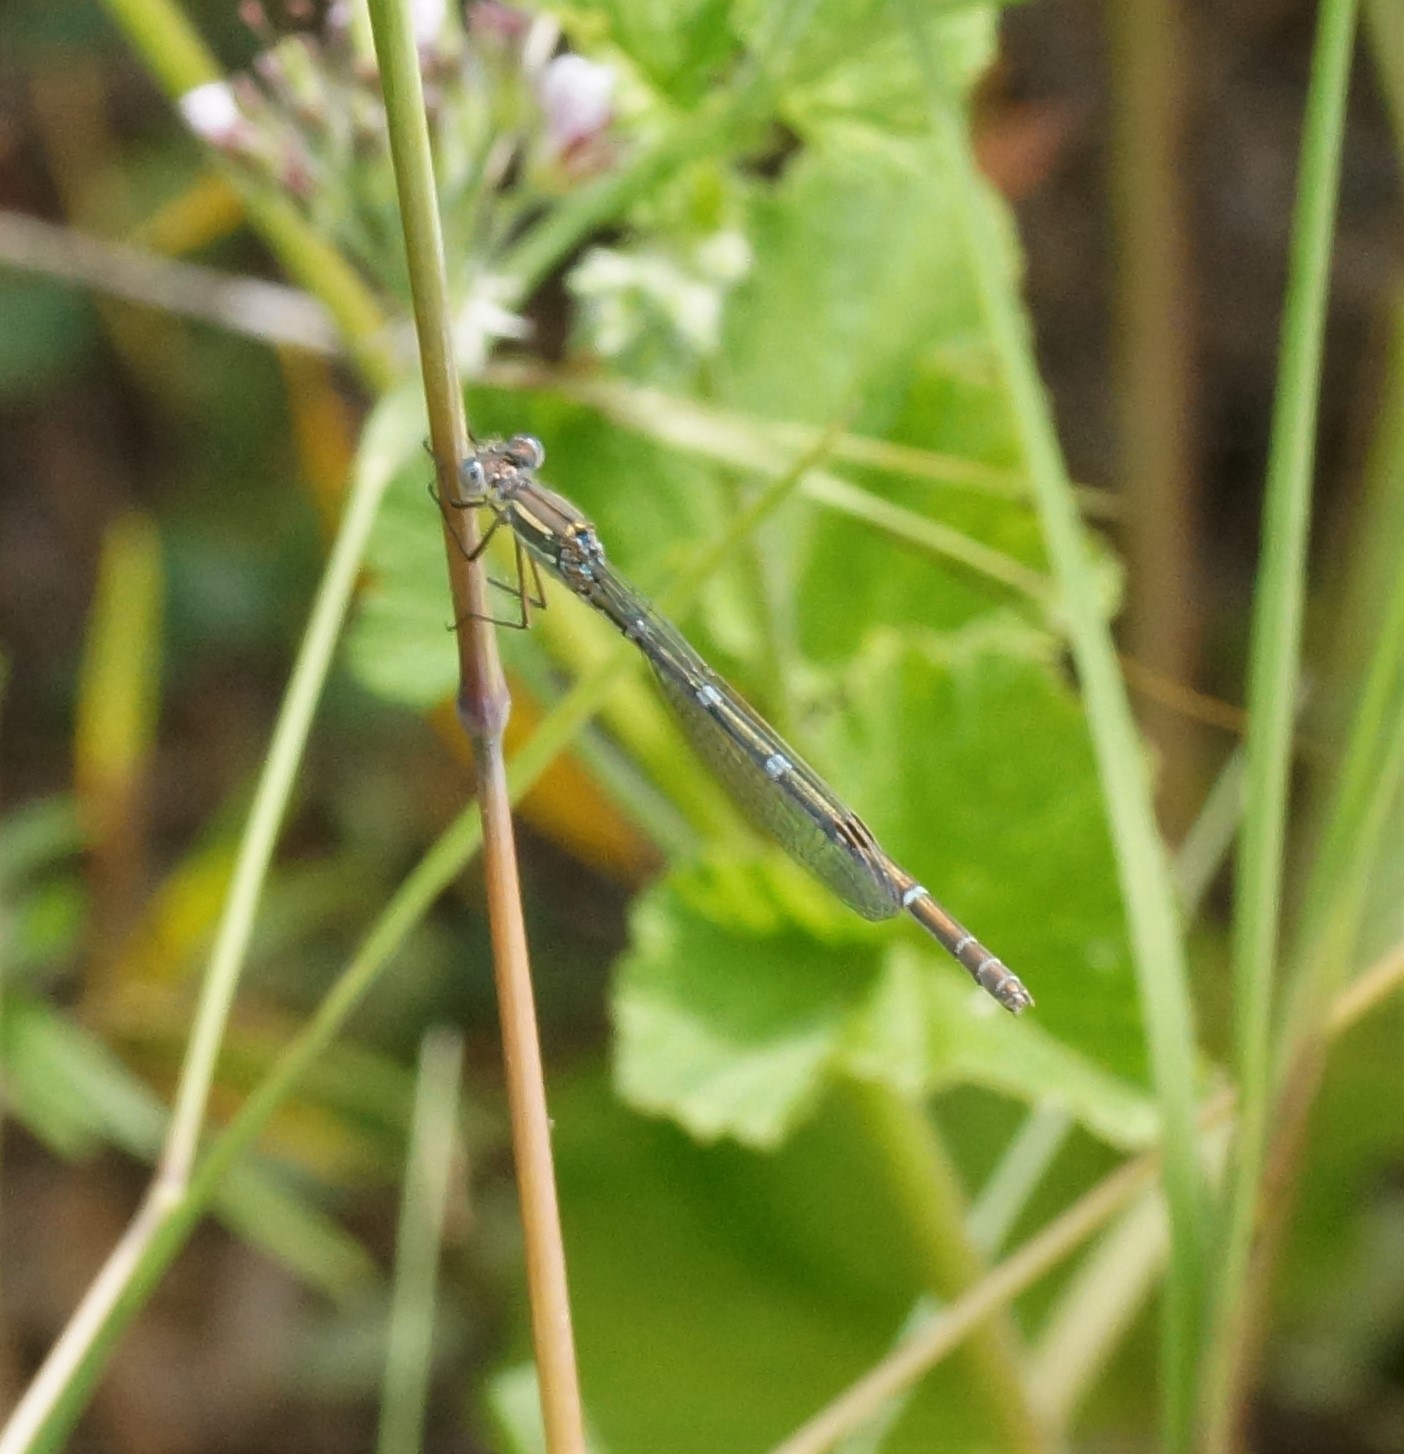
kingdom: Animalia
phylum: Arthropoda
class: Insecta
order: Odonata
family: Lestidae
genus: Austrolestes
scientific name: Austrolestes leda
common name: Wandering ringtail
